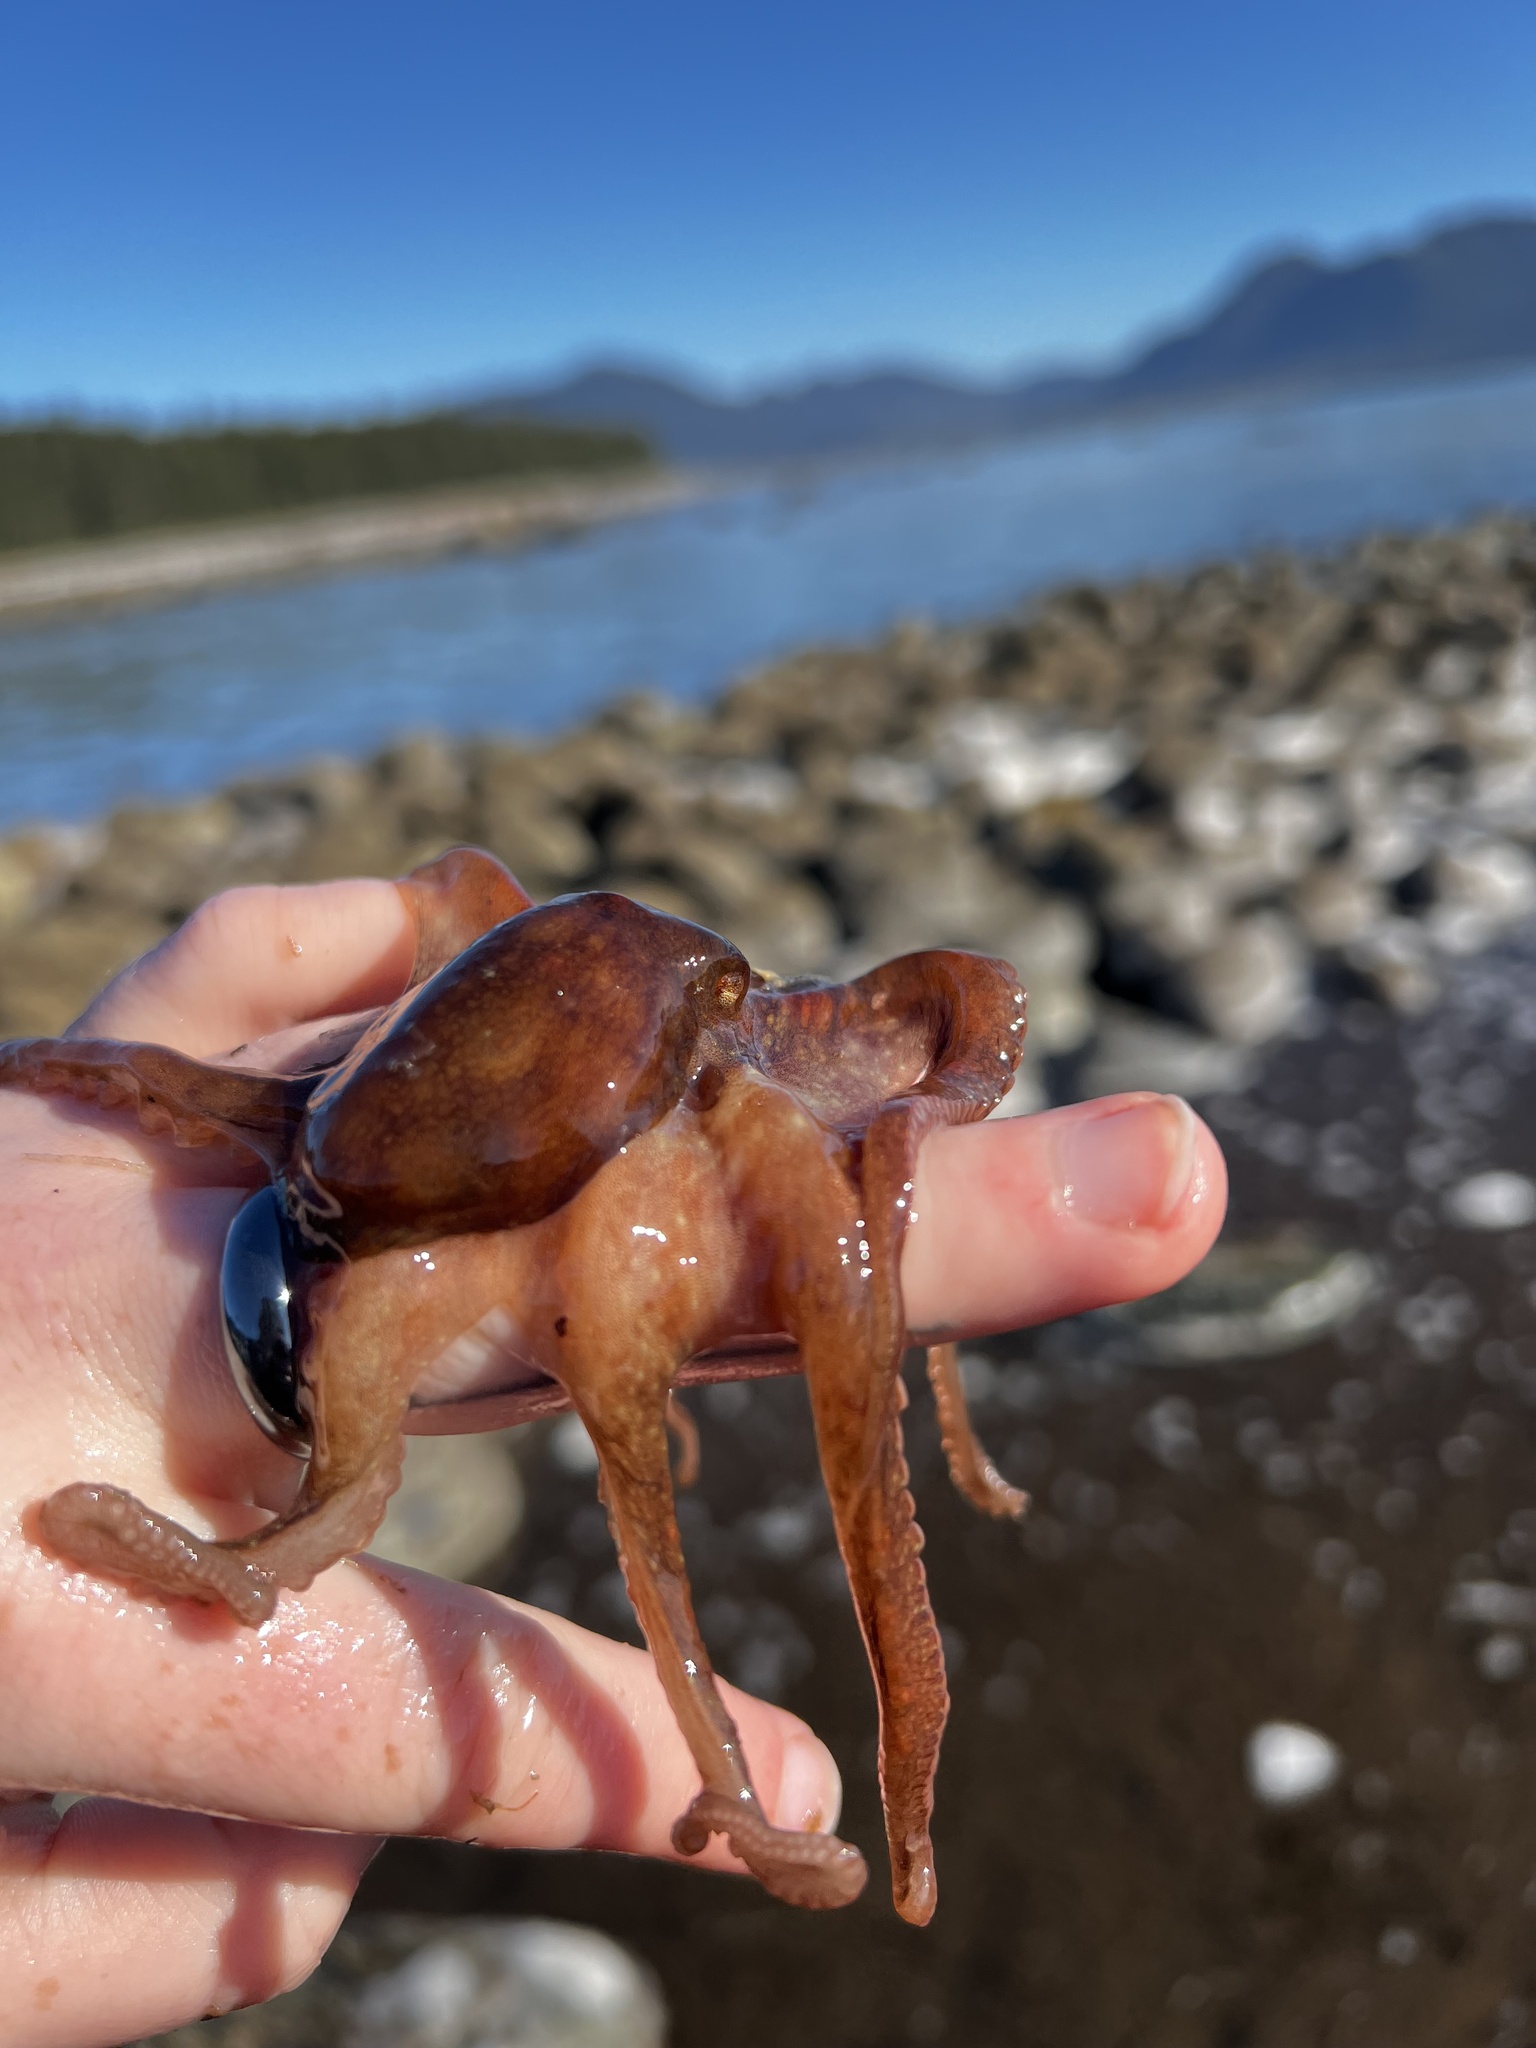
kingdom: Animalia
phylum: Mollusca
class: Cephalopoda
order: Octopoda
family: Octopodidae
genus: Octopus
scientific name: Octopus rubescens
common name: East pacific red octopus
